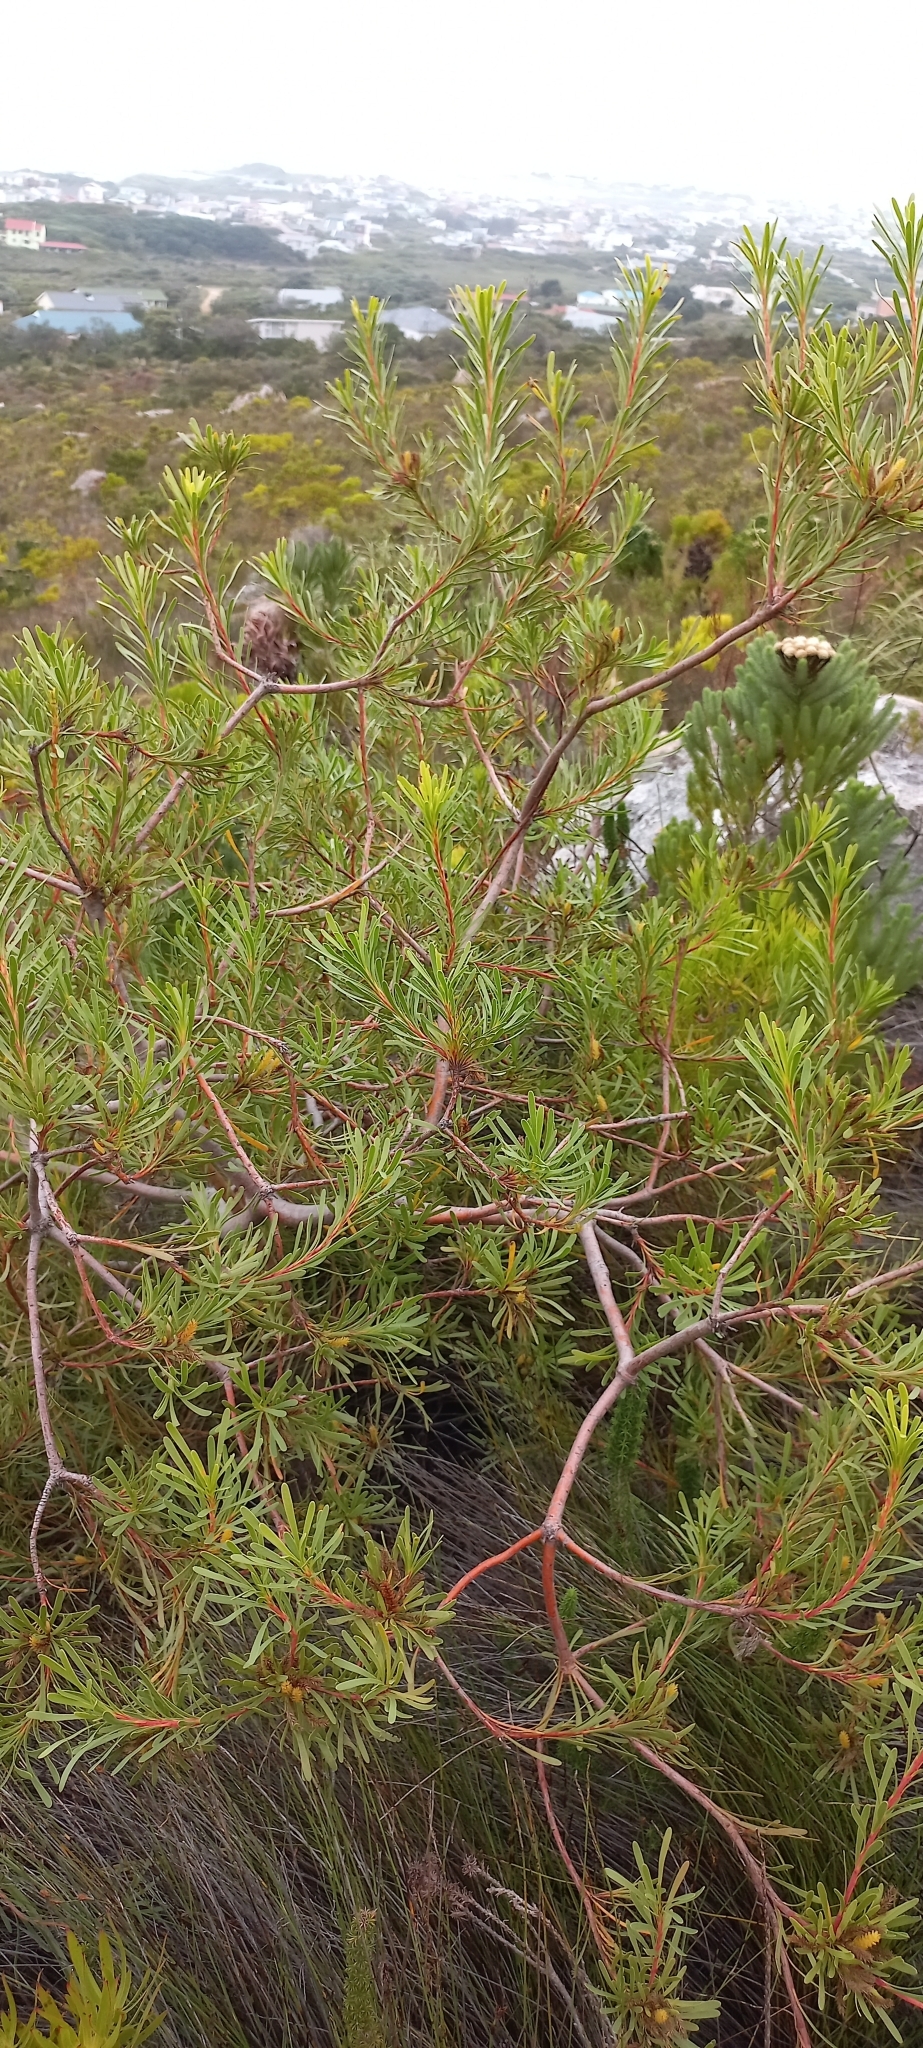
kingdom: Plantae
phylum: Tracheophyta
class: Magnoliopsida
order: Proteales
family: Proteaceae
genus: Aulax
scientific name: Aulax umbellata
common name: Broad-leaf featherbush
